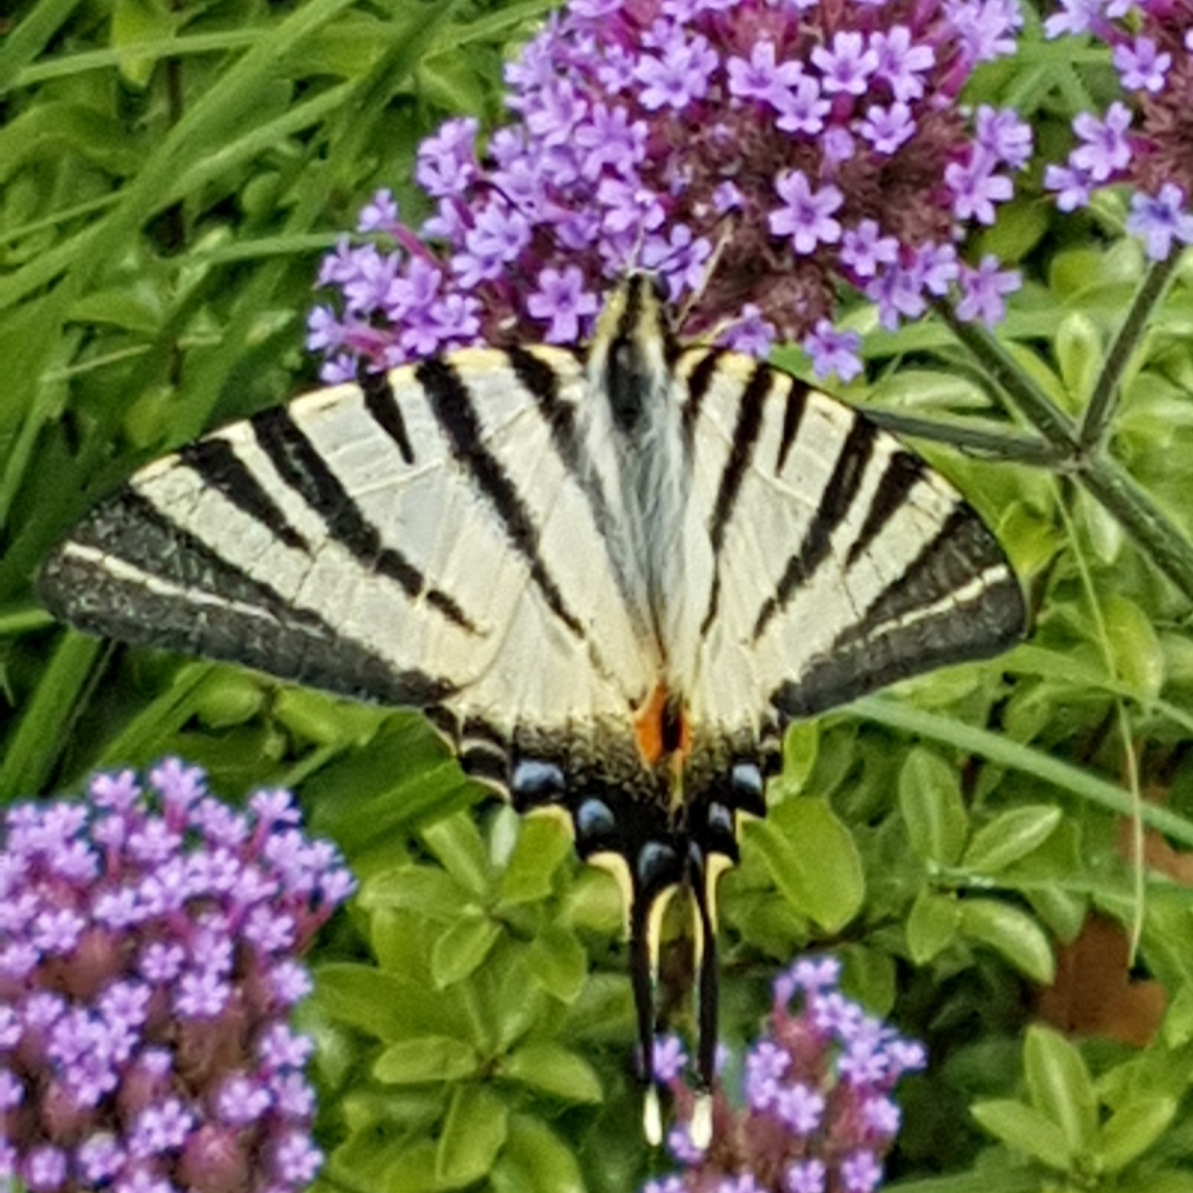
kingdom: Animalia
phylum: Arthropoda
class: Insecta
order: Lepidoptera
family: Papilionidae
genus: Iphiclides
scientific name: Iphiclides podalirius
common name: Scarce swallowtail
